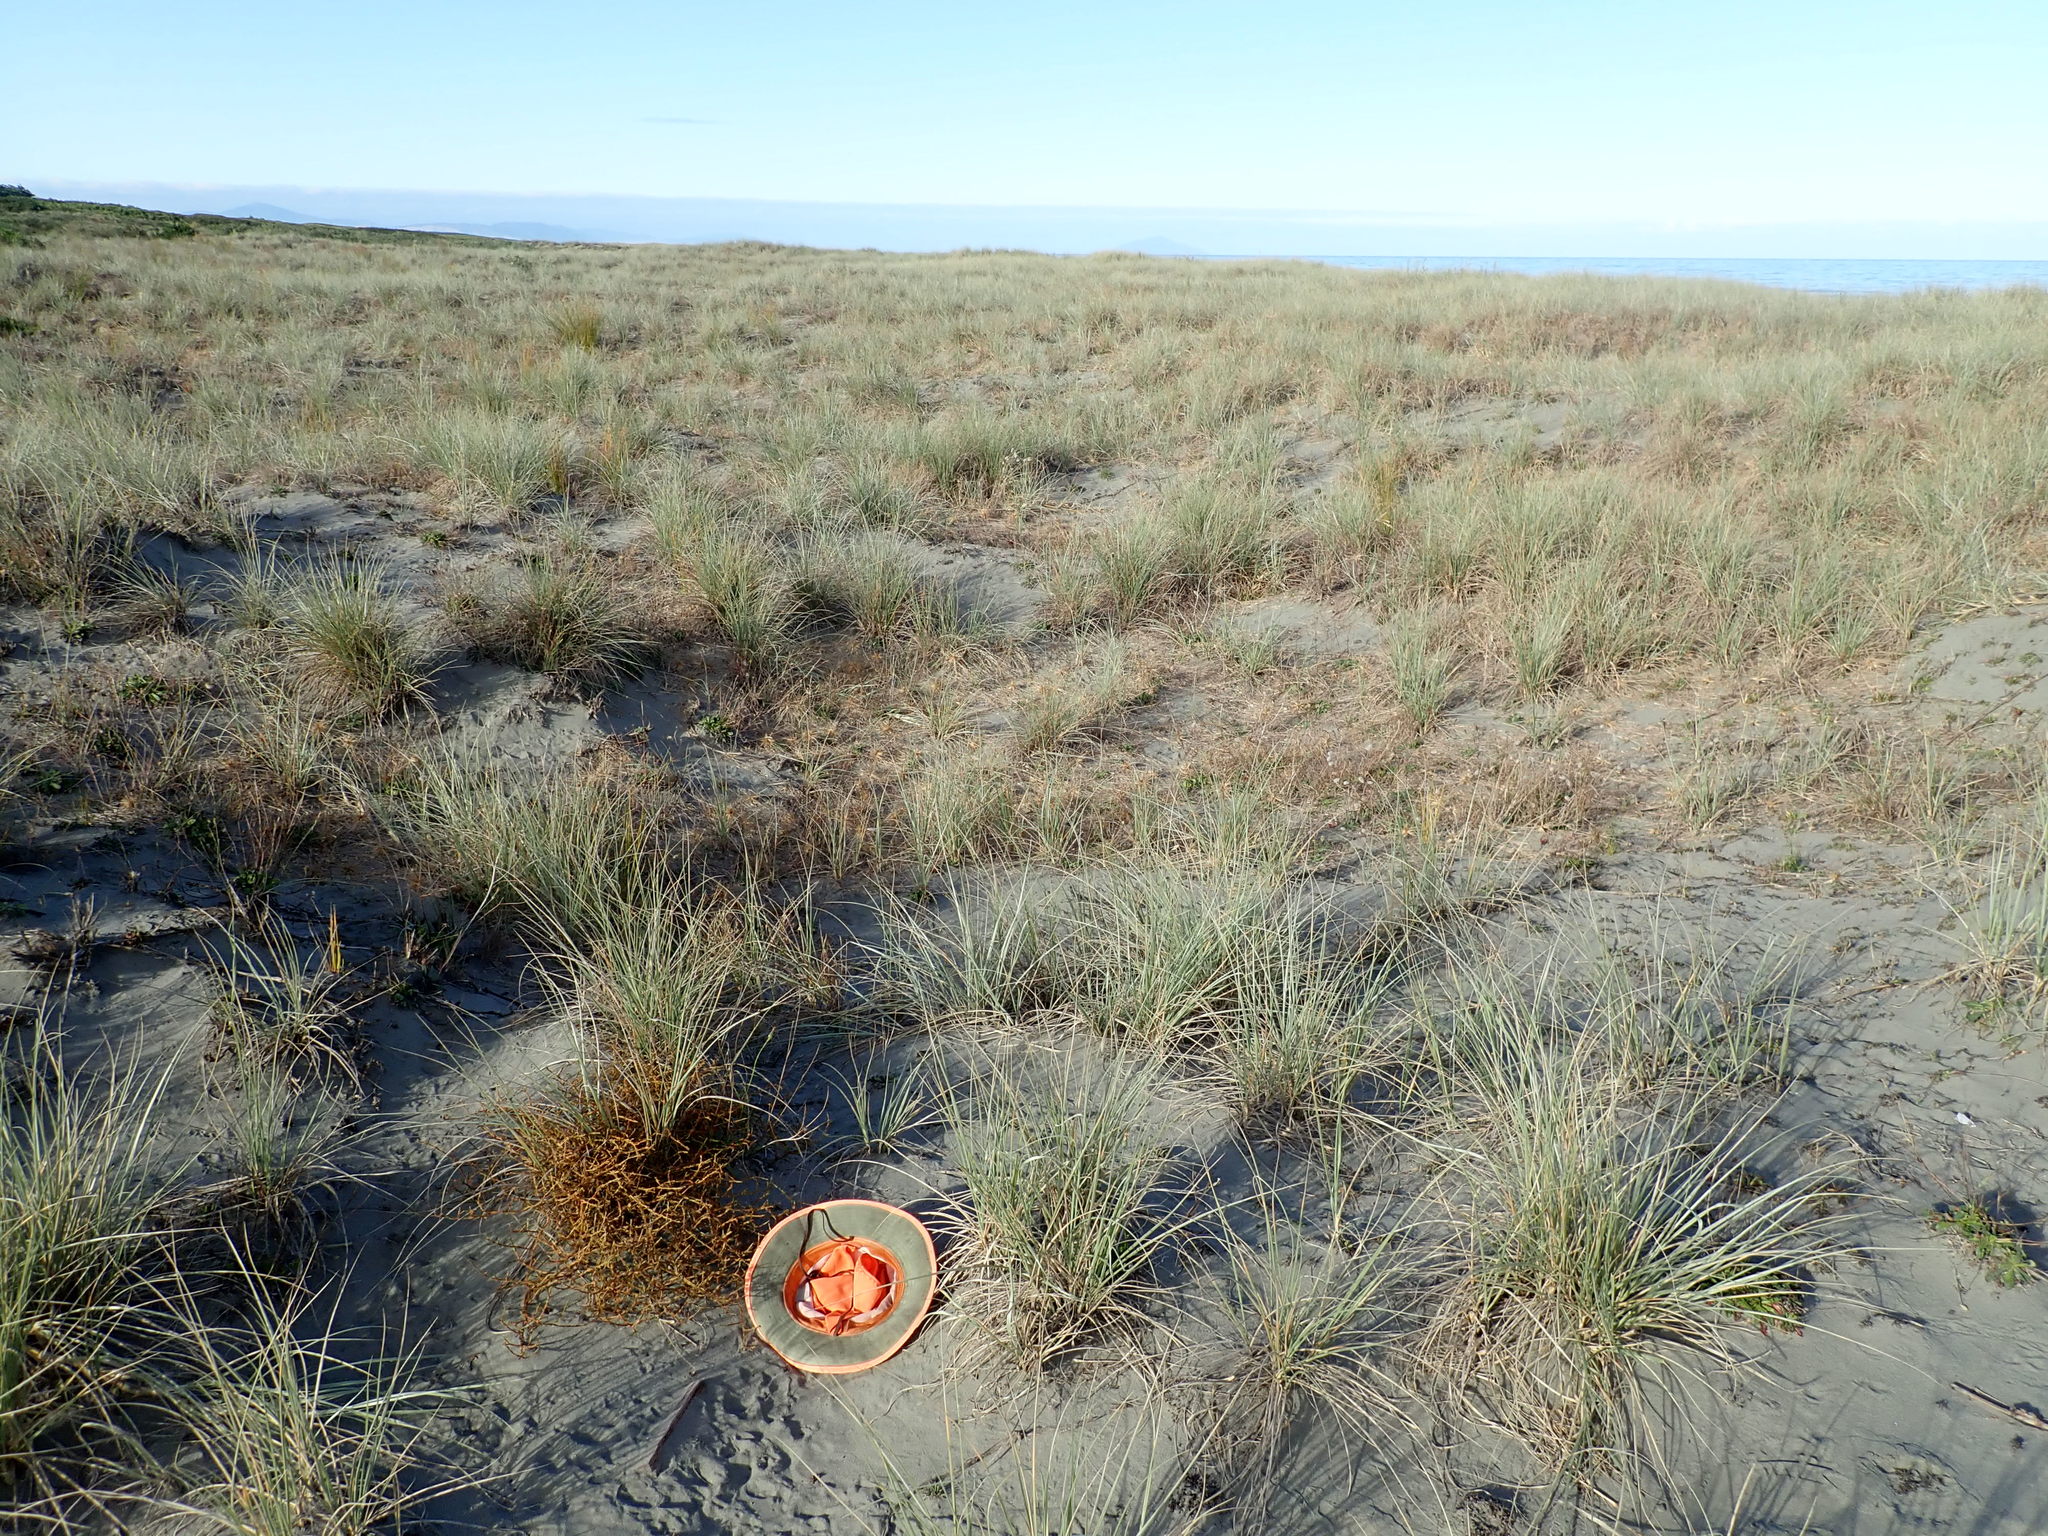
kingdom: Plantae
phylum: Tracheophyta
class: Magnoliopsida
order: Gentianales
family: Rubiaceae
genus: Coprosma
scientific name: Coprosma acerosa
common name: Sand coprosma
